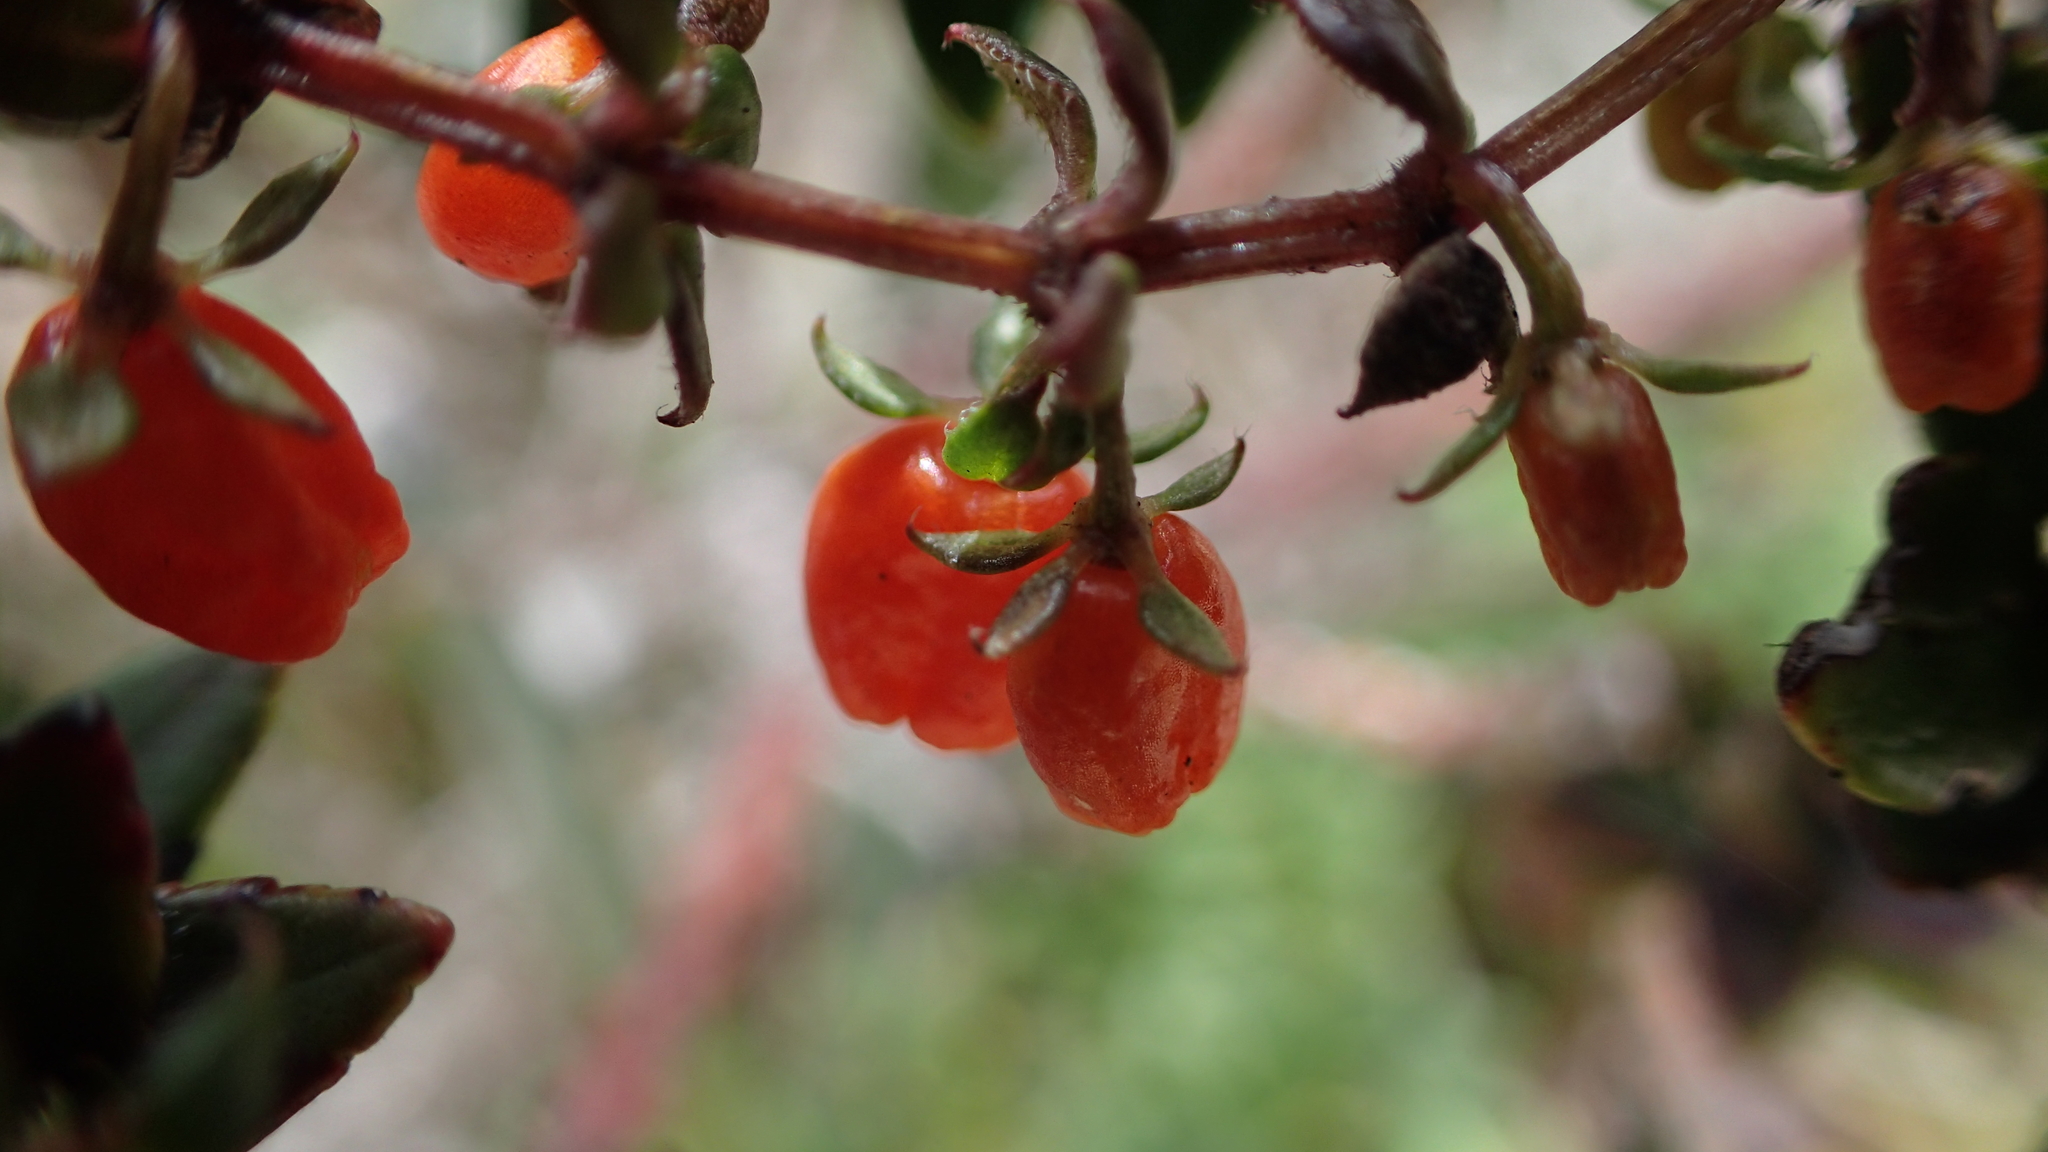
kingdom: Plantae
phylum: Tracheophyta
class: Magnoliopsida
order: Gentianales
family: Rubiaceae
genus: Galium
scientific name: Galium hypocarpium
